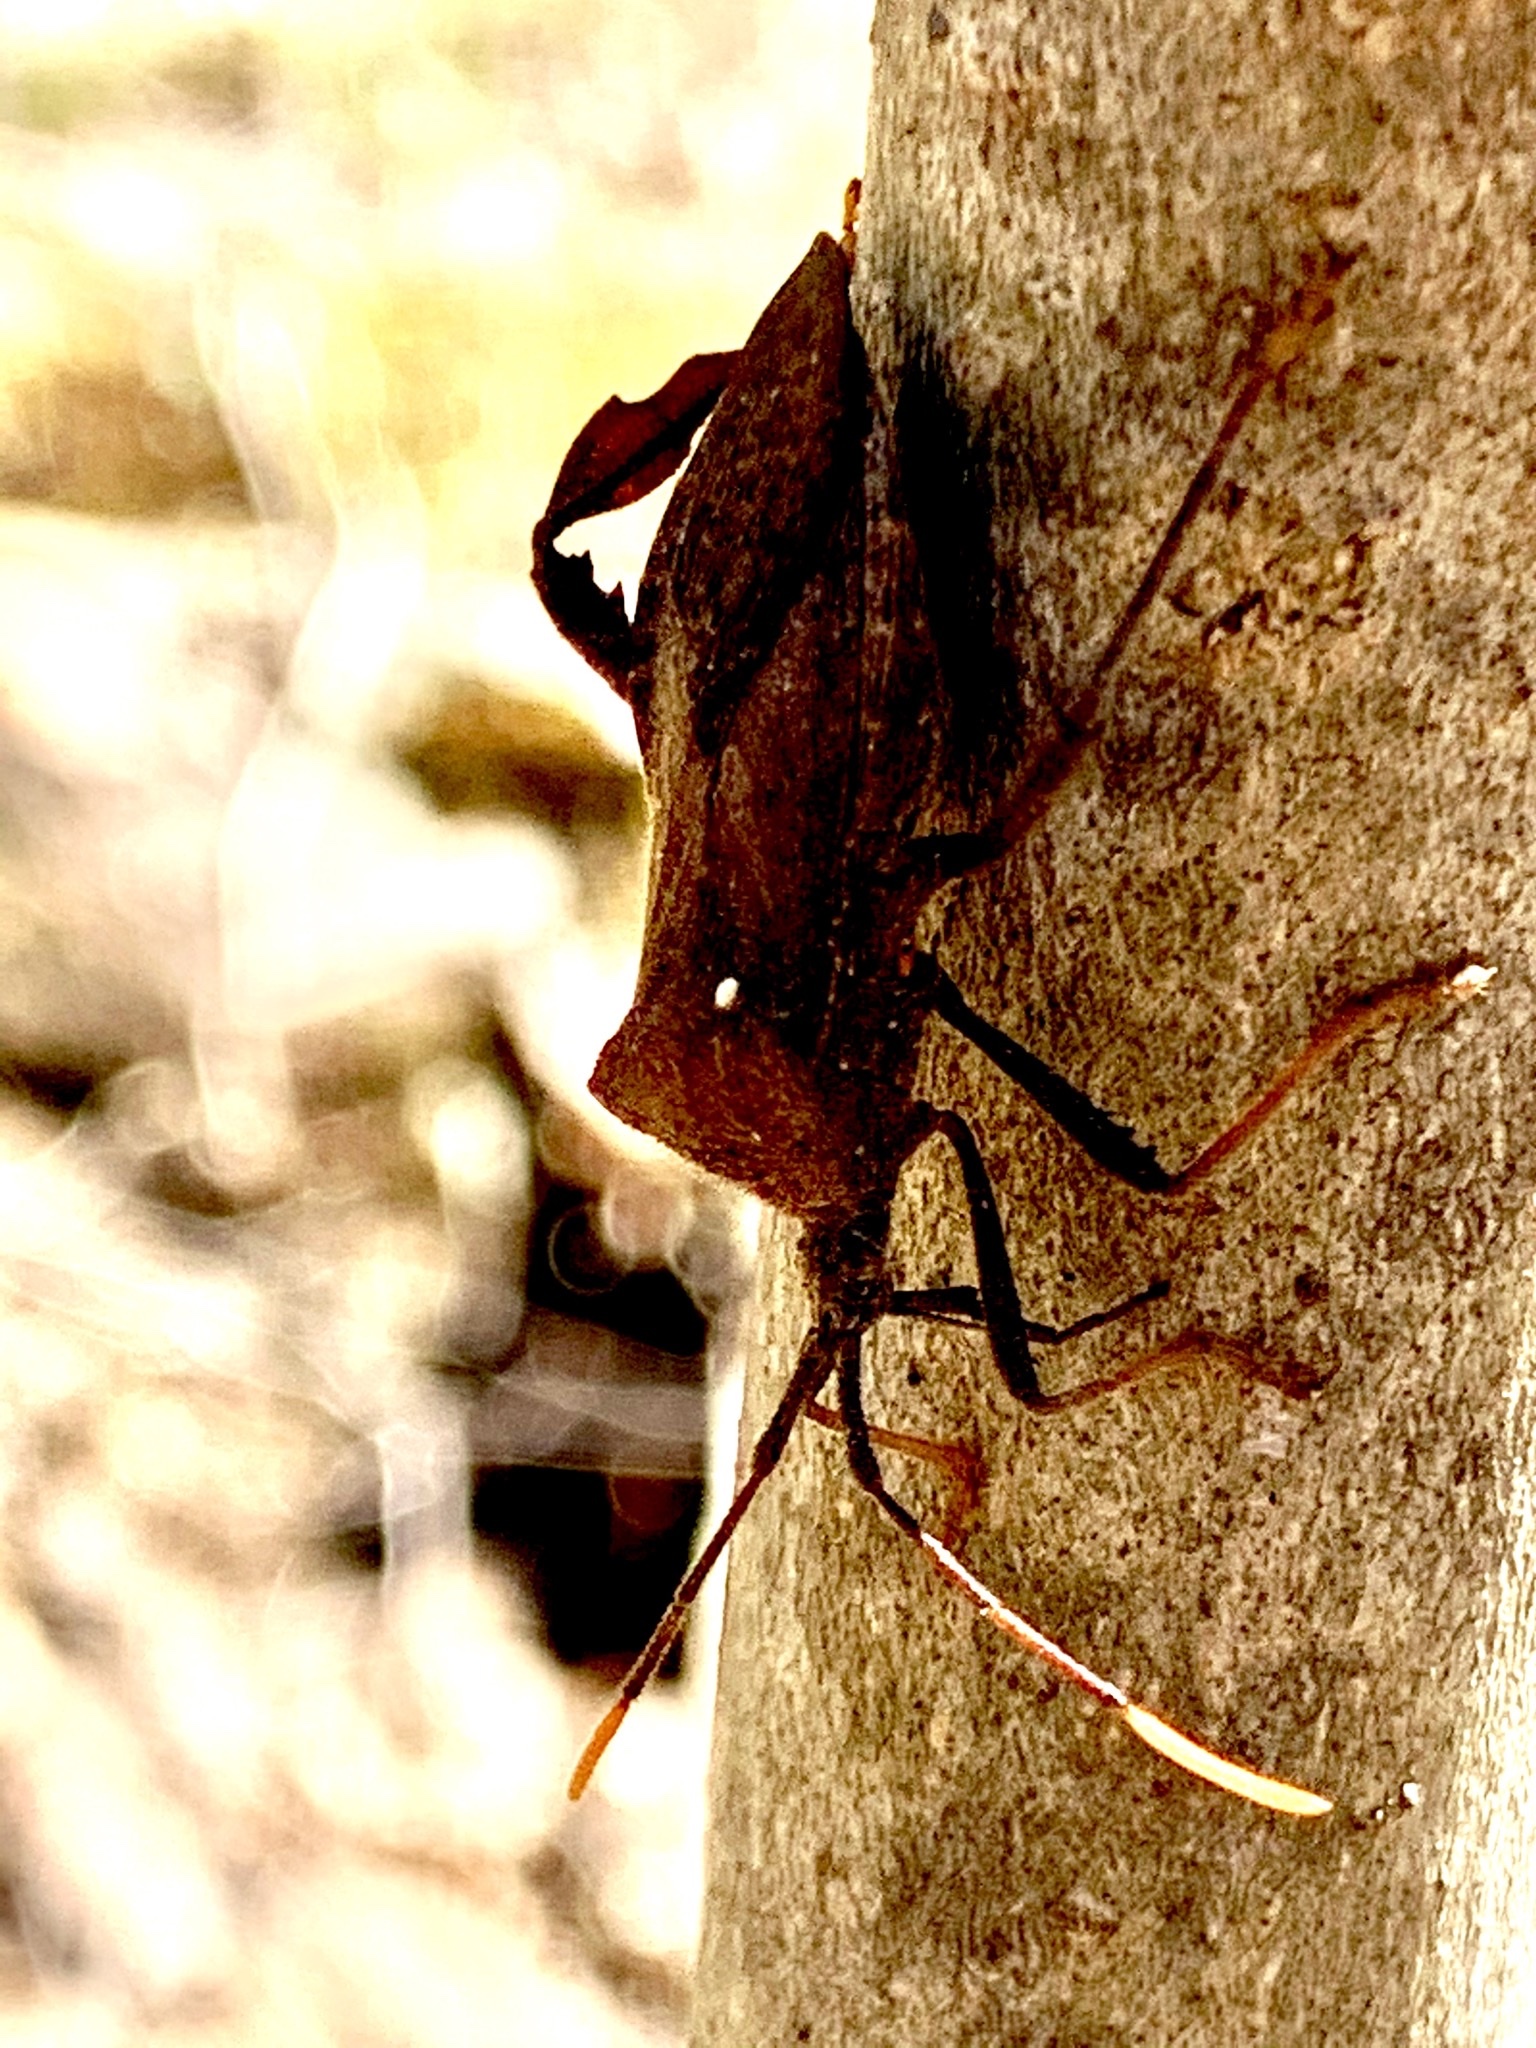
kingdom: Animalia
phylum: Arthropoda
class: Insecta
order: Hemiptera
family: Coreidae
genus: Acanthocephala
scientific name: Acanthocephala terminalis
